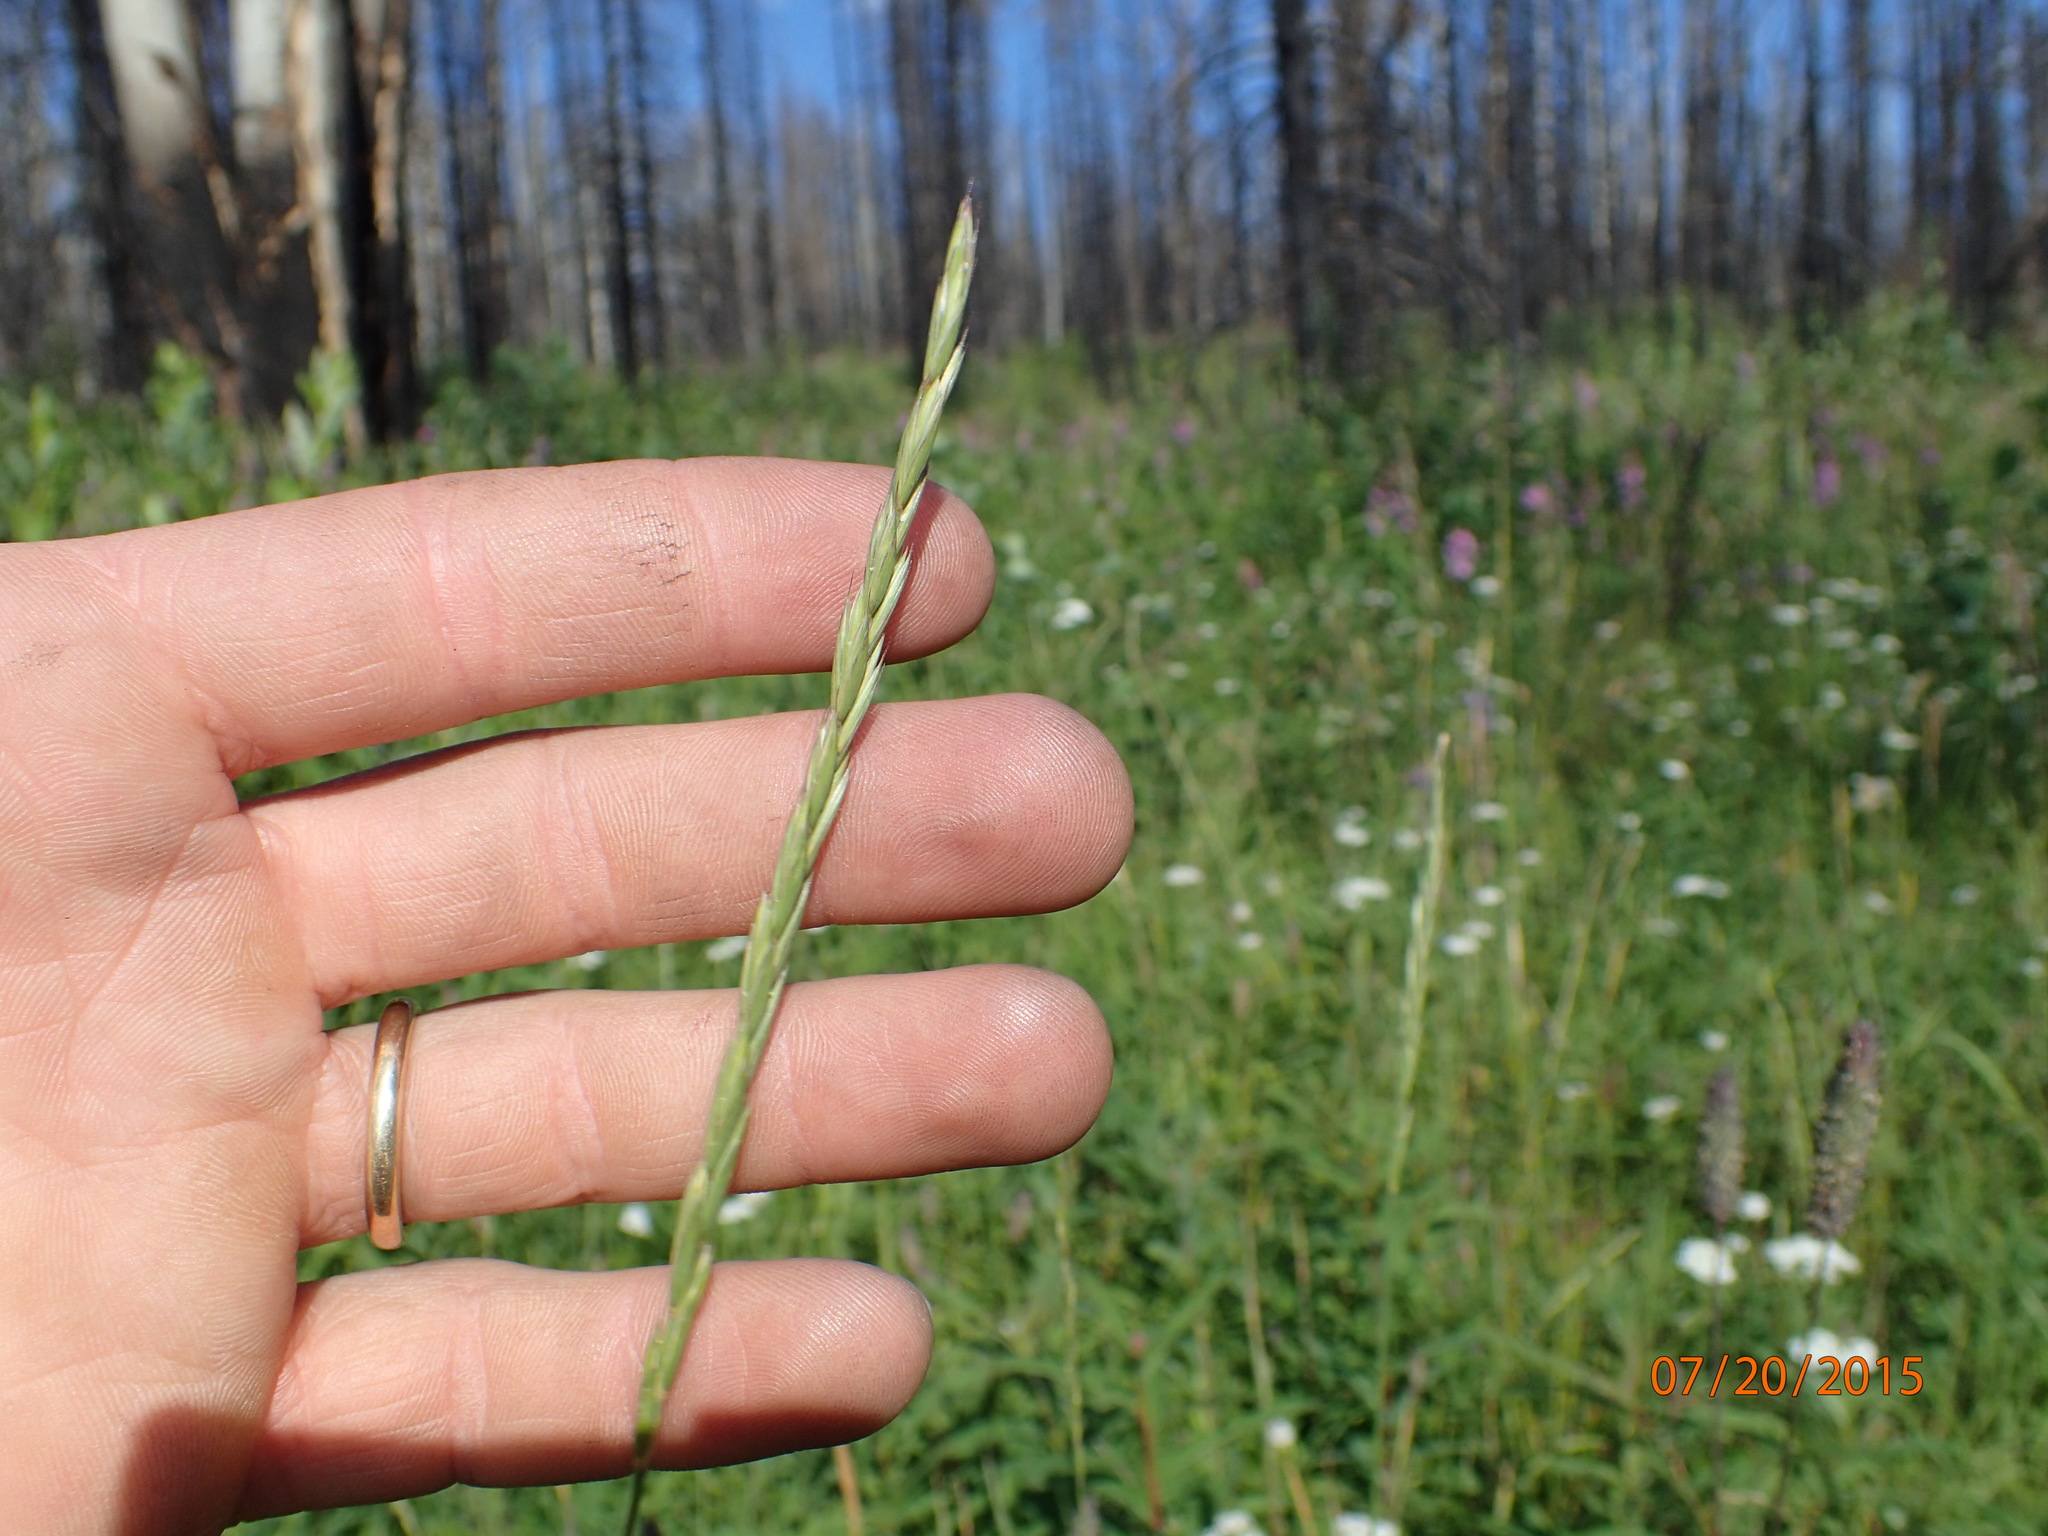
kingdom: Plantae
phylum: Tracheophyta
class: Liliopsida
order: Poales
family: Poaceae
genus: Elymus
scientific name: Elymus violaceus
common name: Arctic wheatgrass
